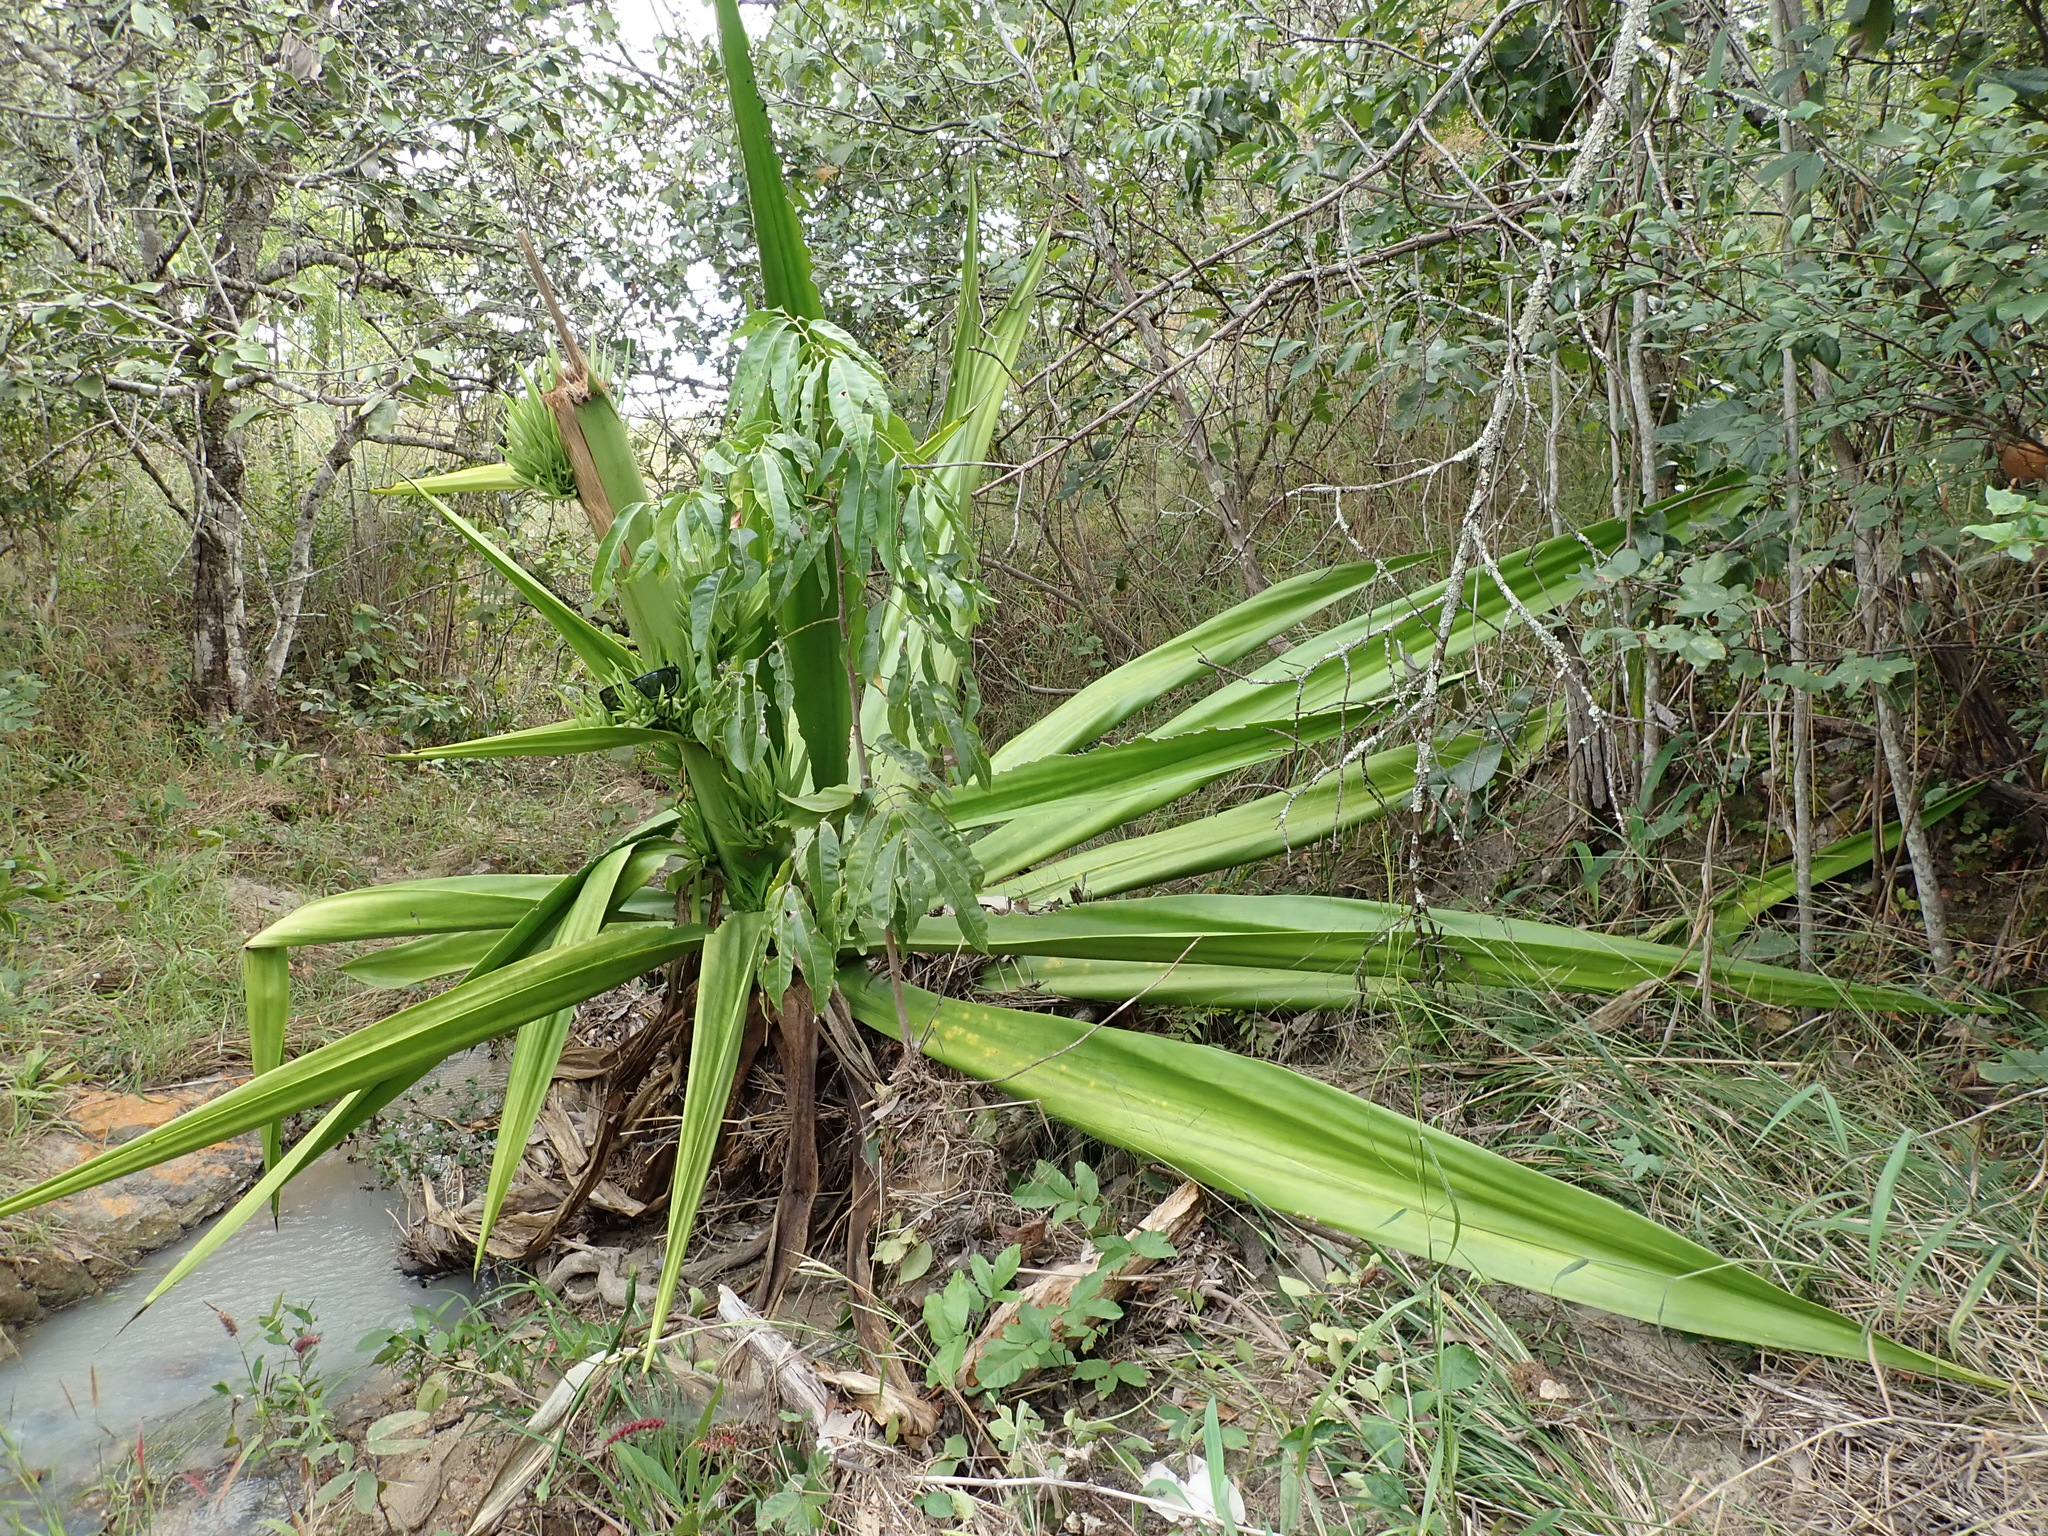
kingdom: Plantae
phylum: Tracheophyta
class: Liliopsida
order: Asparagales
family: Asparagaceae
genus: Furcraea
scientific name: Furcraea foetida
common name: Mauritius hemp
